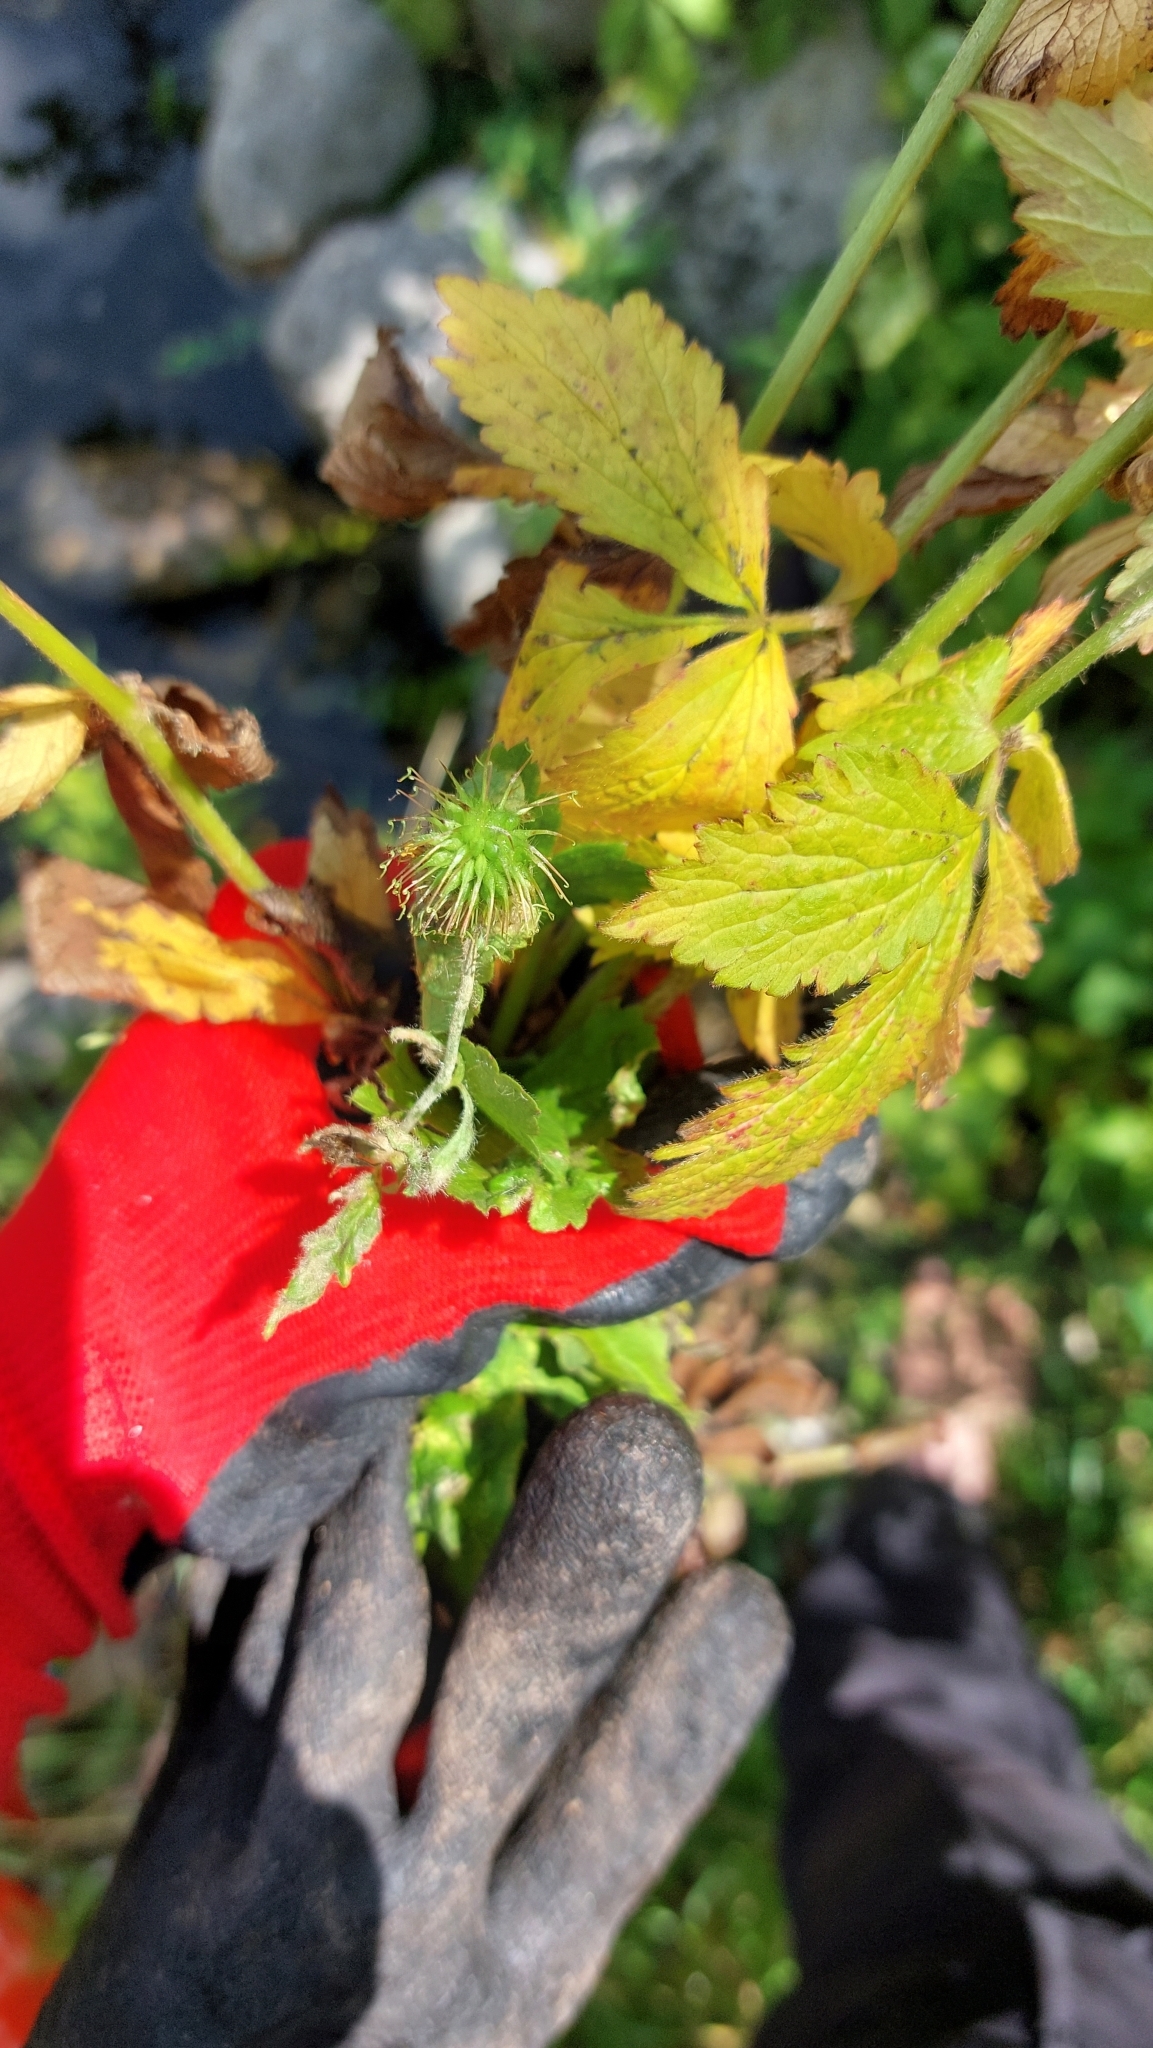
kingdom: Plantae
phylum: Tracheophyta
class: Magnoliopsida
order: Rosales
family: Rosaceae
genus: Geum
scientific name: Geum urbanum
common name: Wood avens
